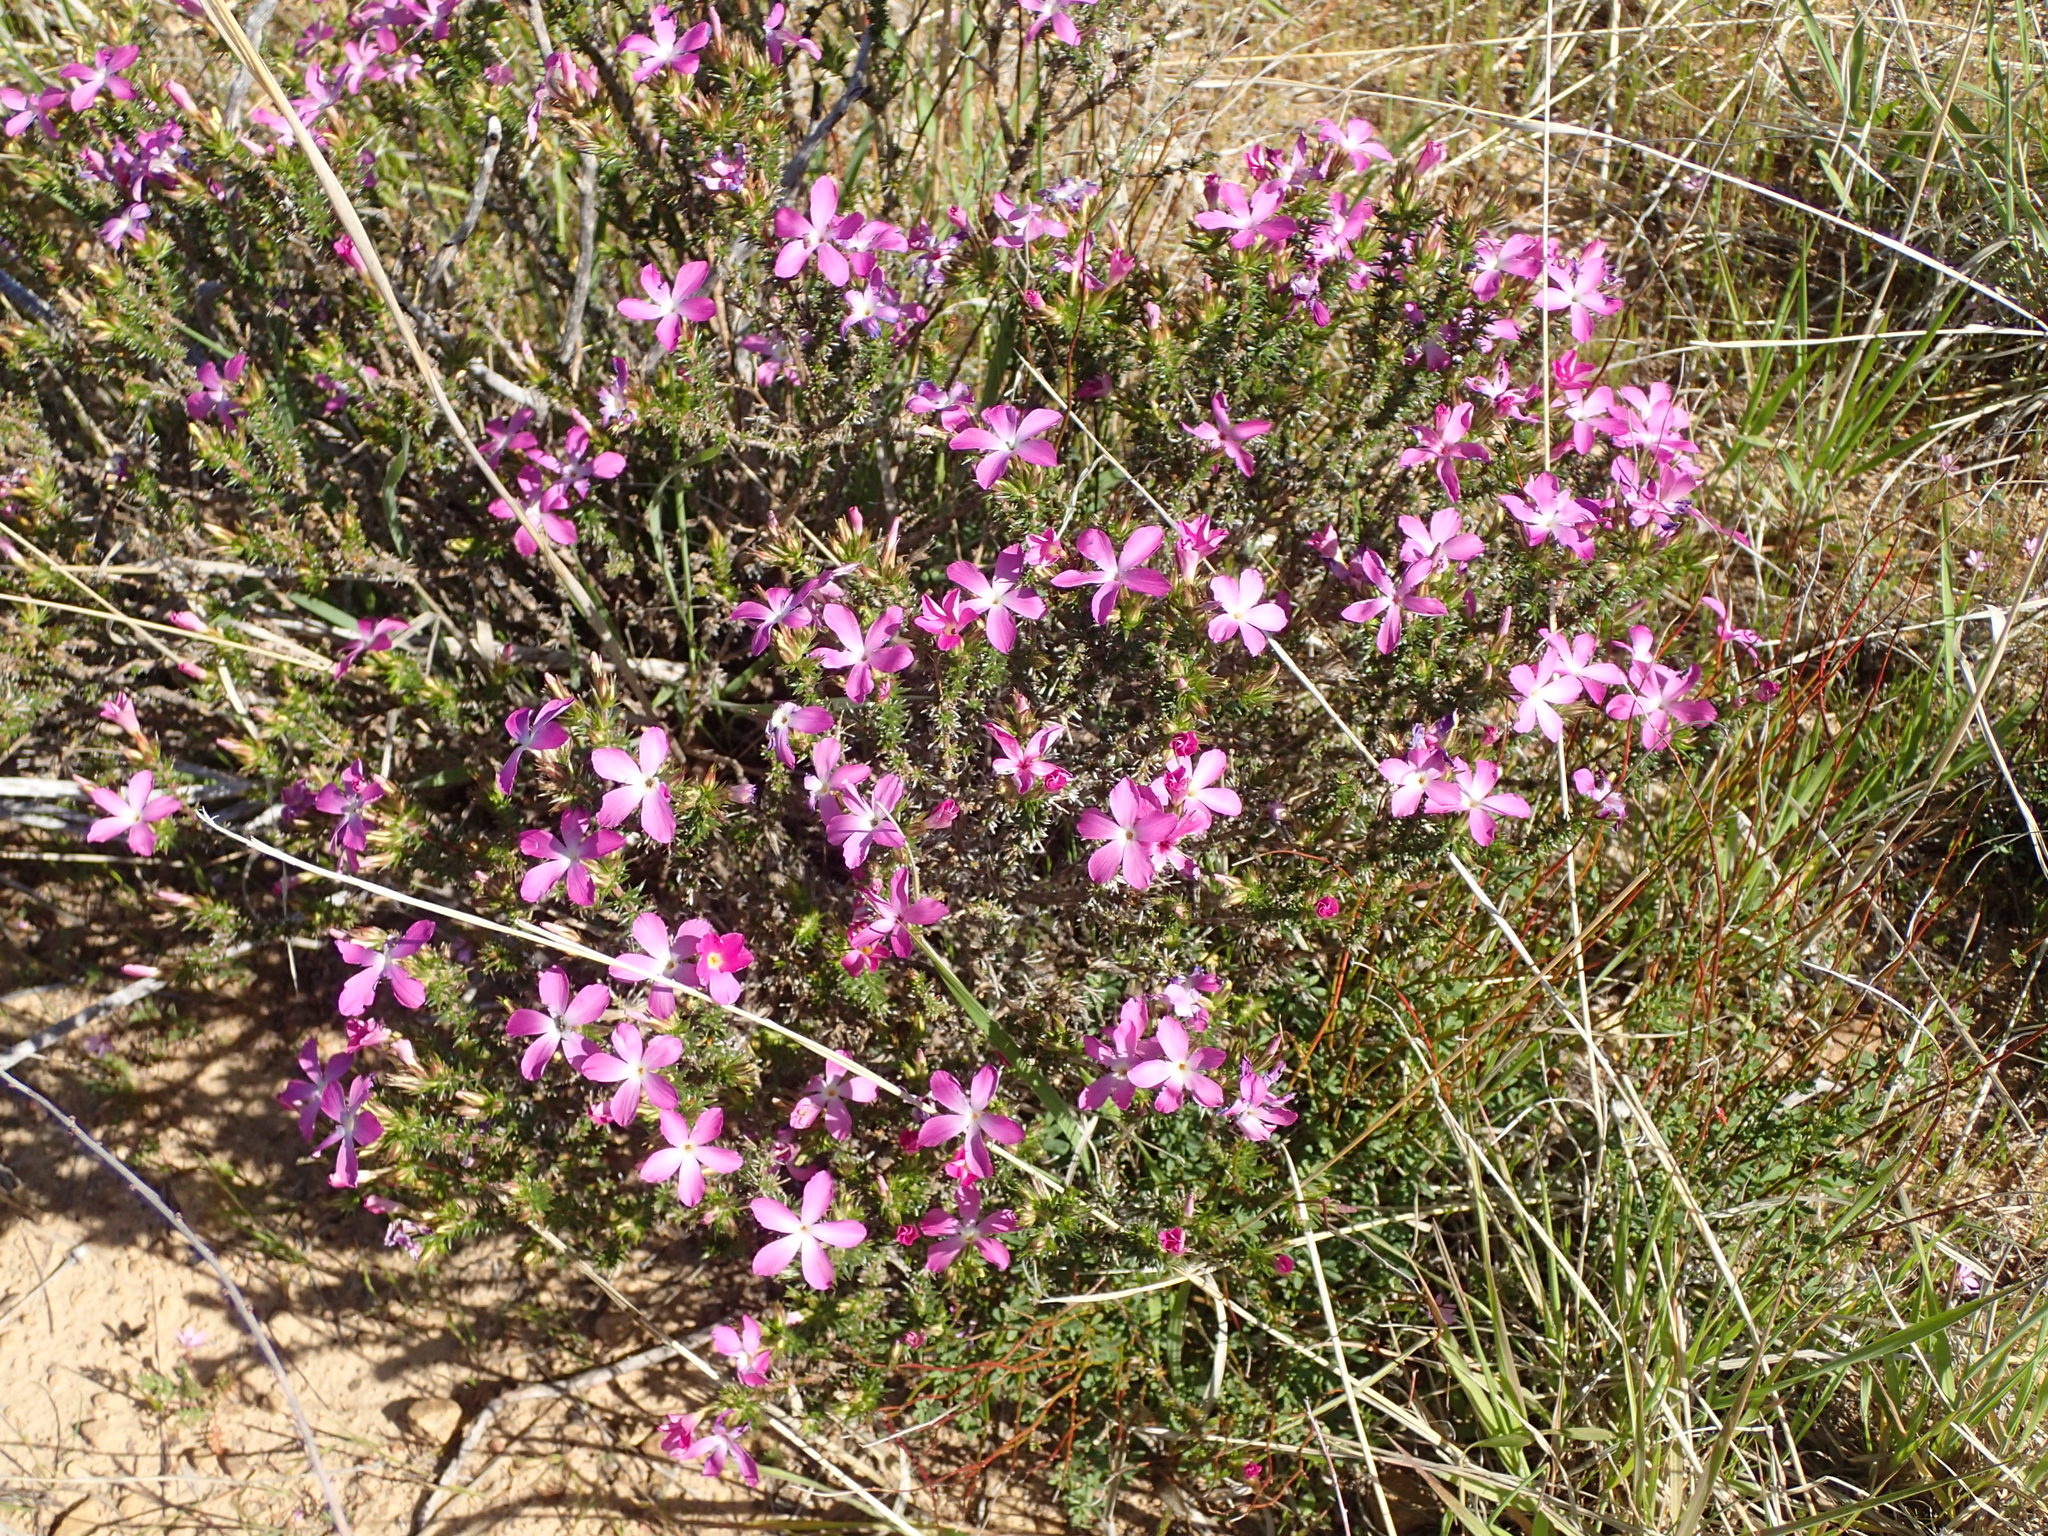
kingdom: Plantae
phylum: Tracheophyta
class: Magnoliopsida
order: Ericales
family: Polemoniaceae
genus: Linanthus
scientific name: Linanthus californicus
